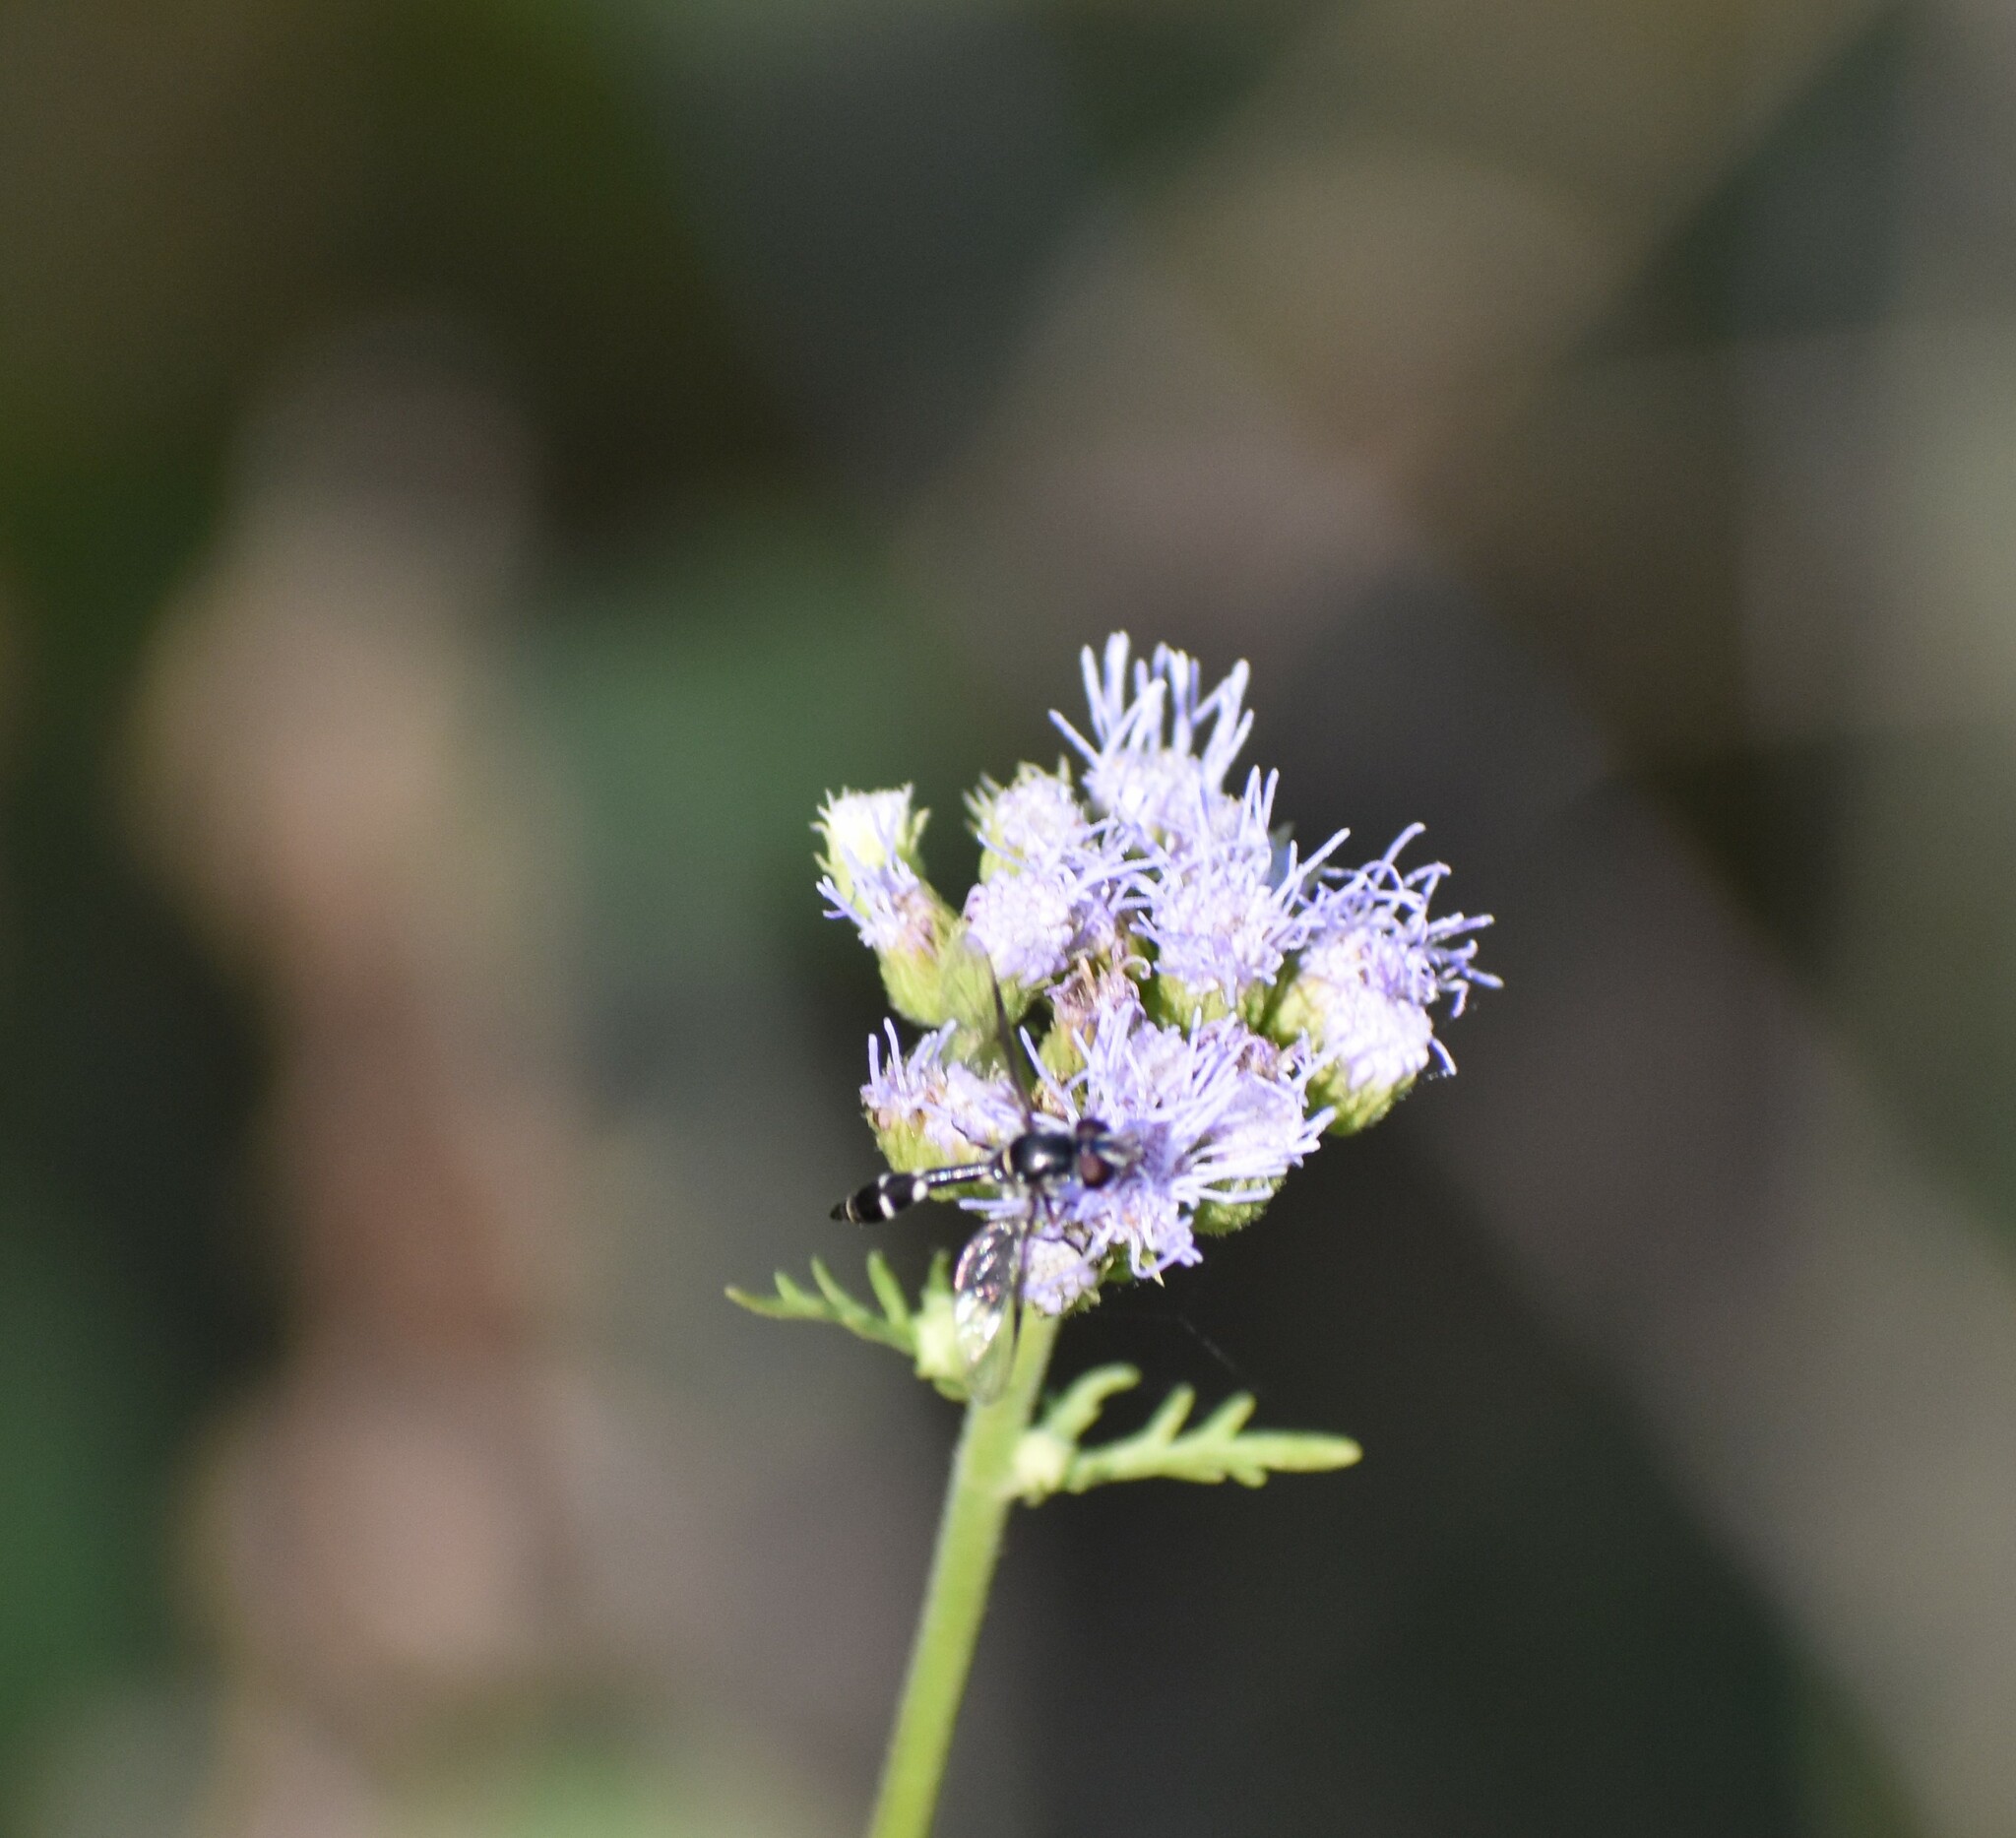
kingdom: Animalia
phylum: Arthropoda
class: Insecta
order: Diptera
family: Syrphidae
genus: Dioprosopa
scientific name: Dioprosopa clavatus
